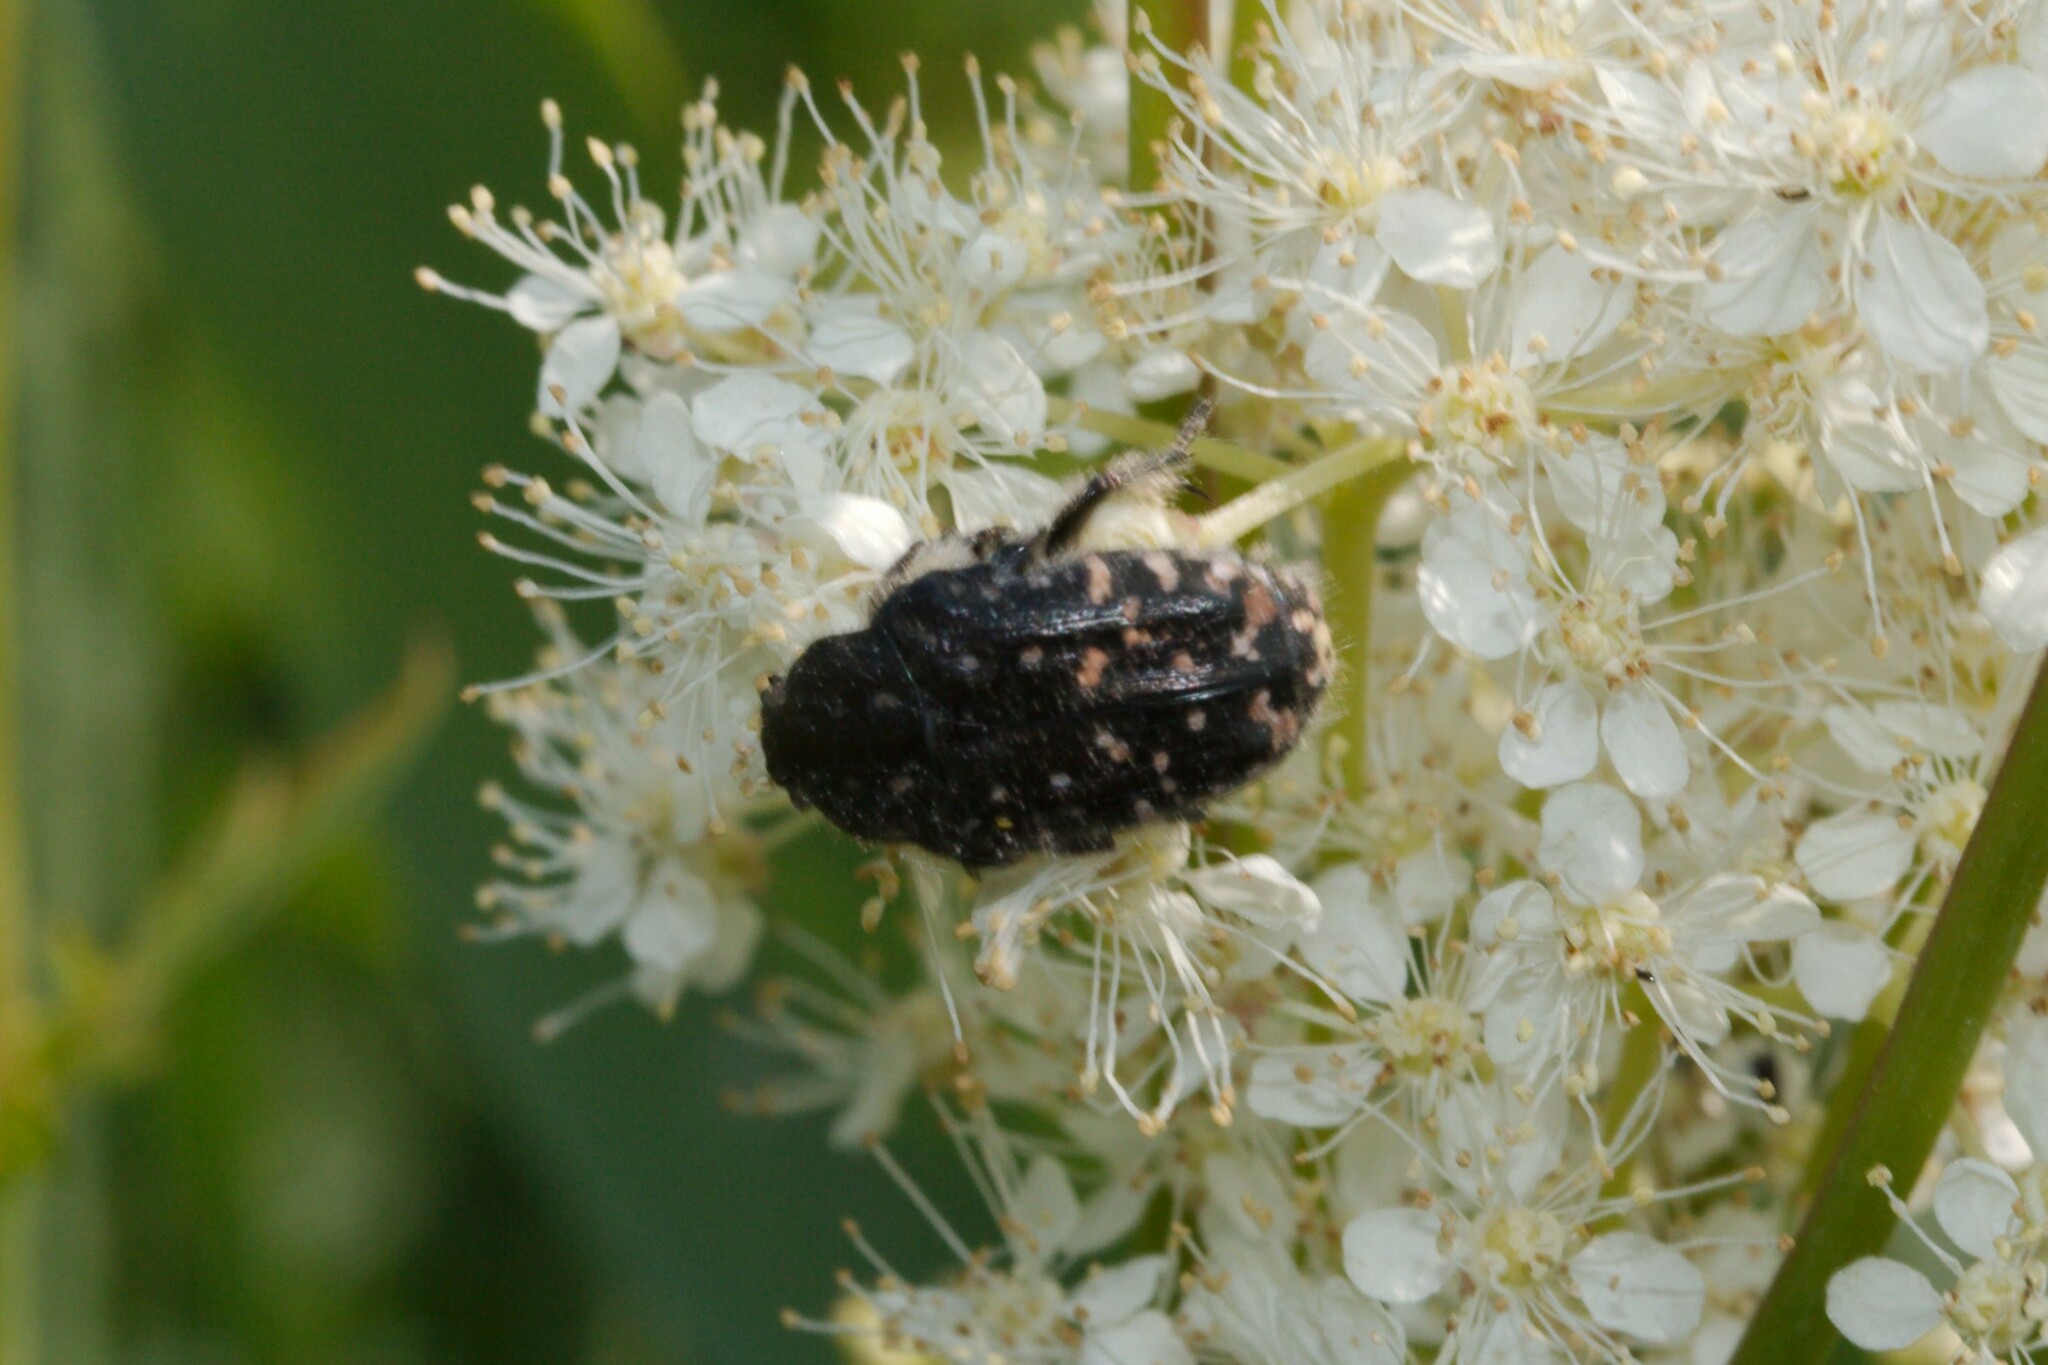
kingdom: Animalia
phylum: Arthropoda
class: Insecta
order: Coleoptera
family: Scarabaeidae
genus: Oxythyrea
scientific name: Oxythyrea funesta
